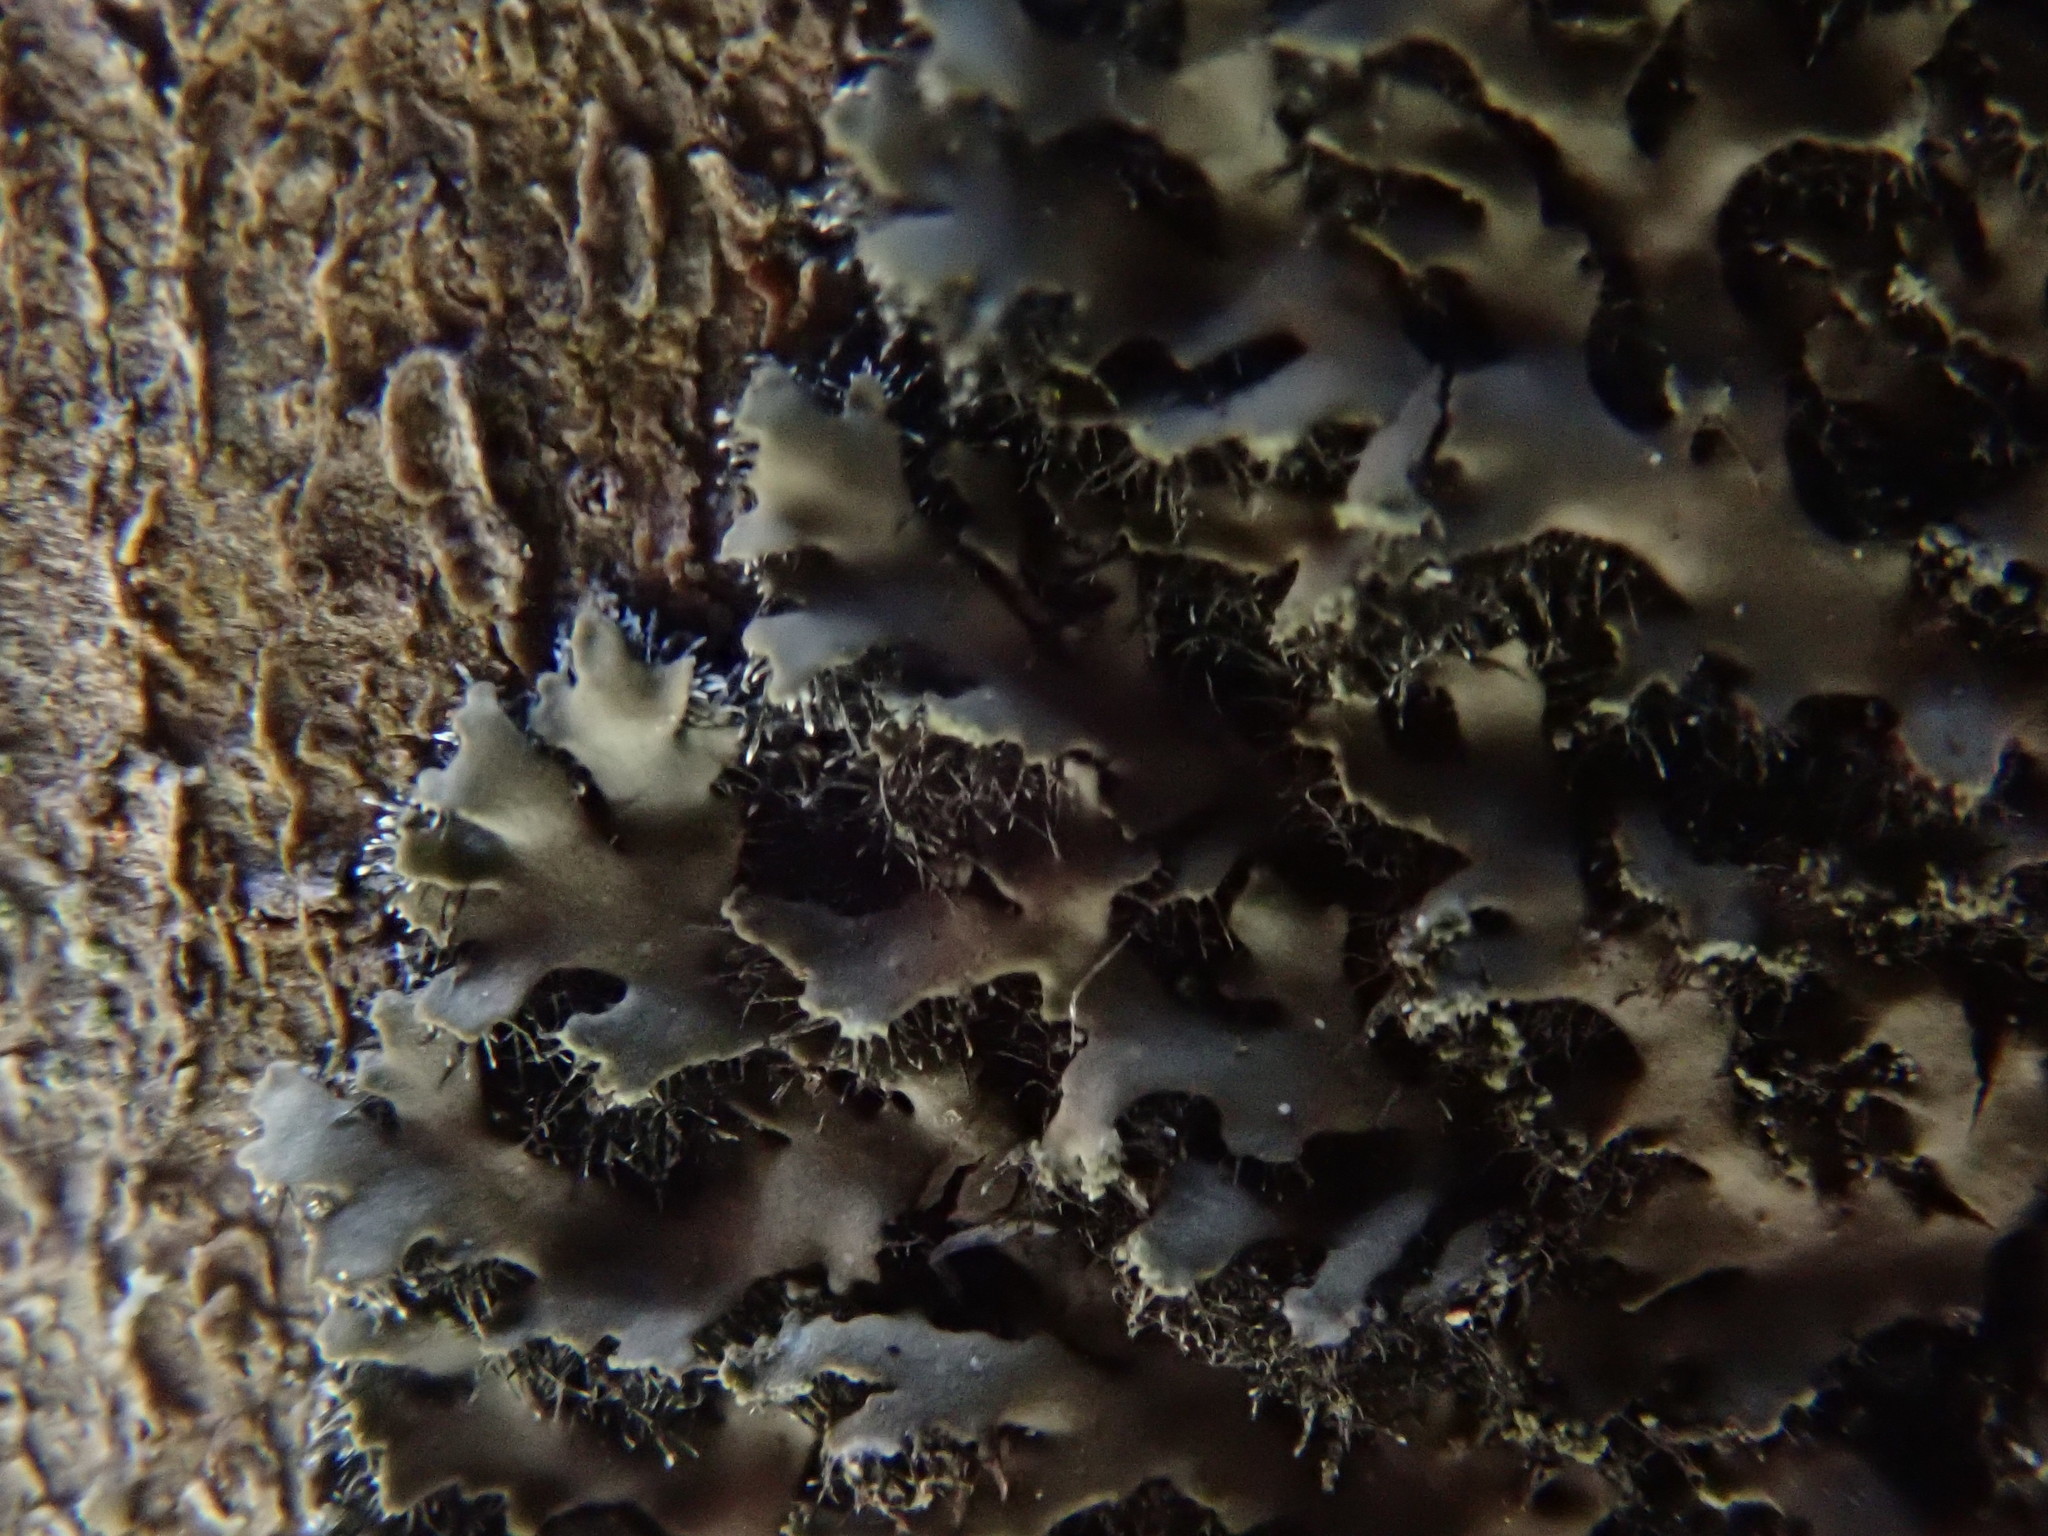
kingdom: Fungi
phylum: Ascomycota
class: Lecanoromycetes
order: Caliciales
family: Physciaceae
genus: Phaeophyscia
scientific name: Phaeophyscia rubropulchra
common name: Orange-cored shadow lichen
